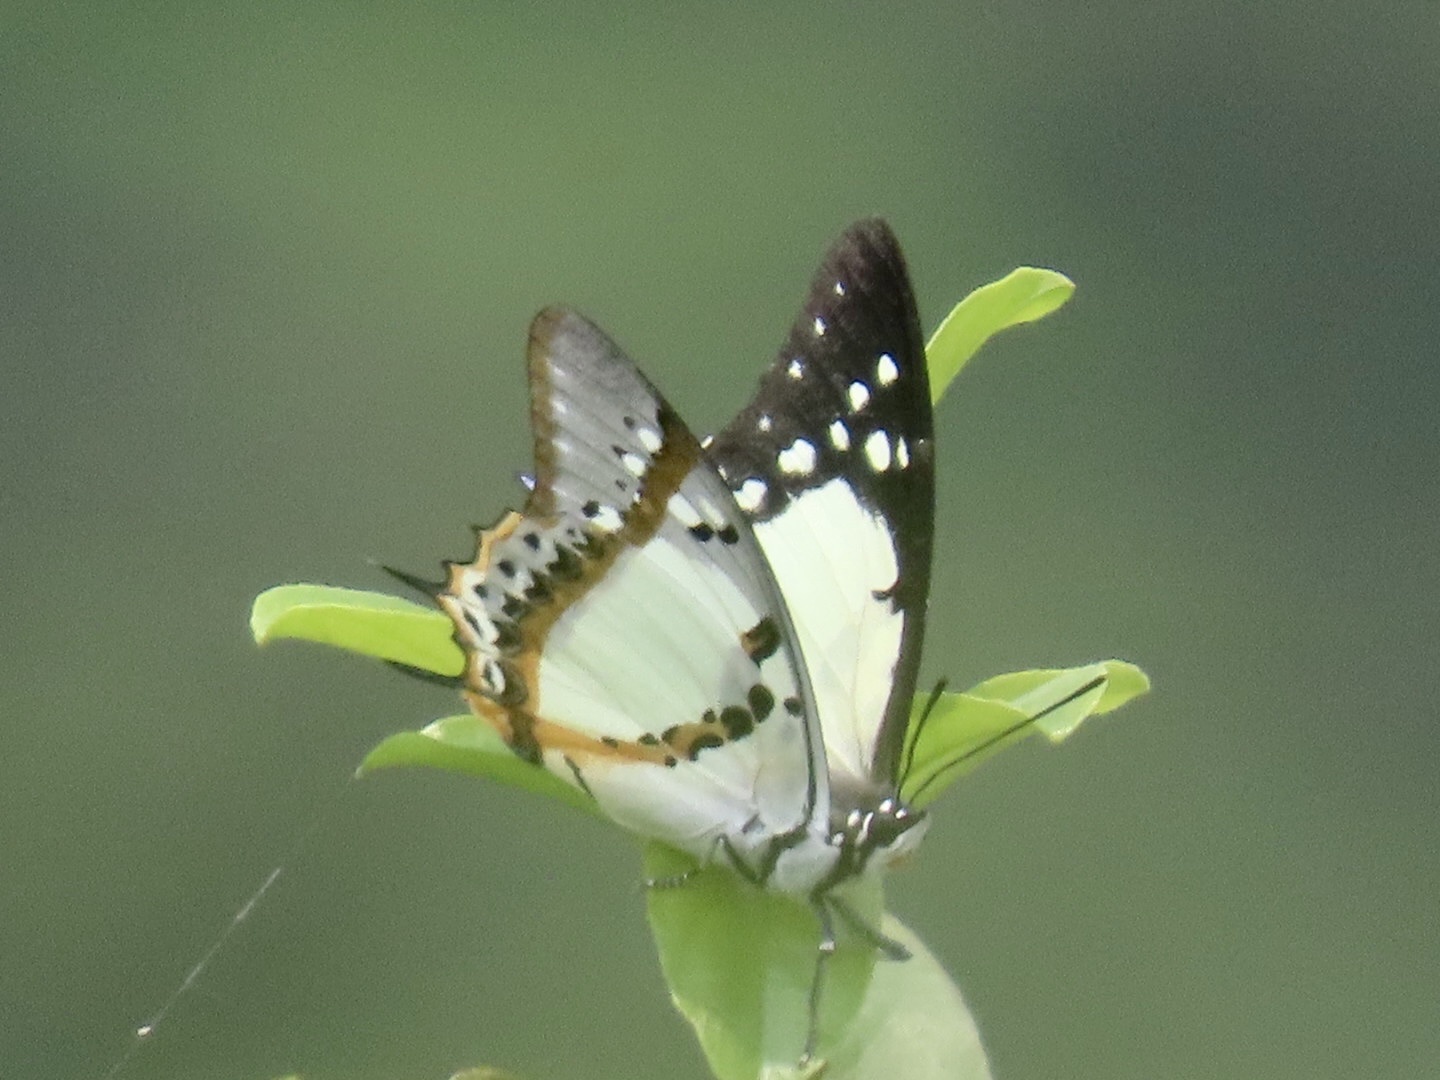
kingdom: Animalia
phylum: Arthropoda
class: Insecta
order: Lepidoptera
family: Nymphalidae
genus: Polyura
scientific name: Polyura nepenthes
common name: Shan nawab
